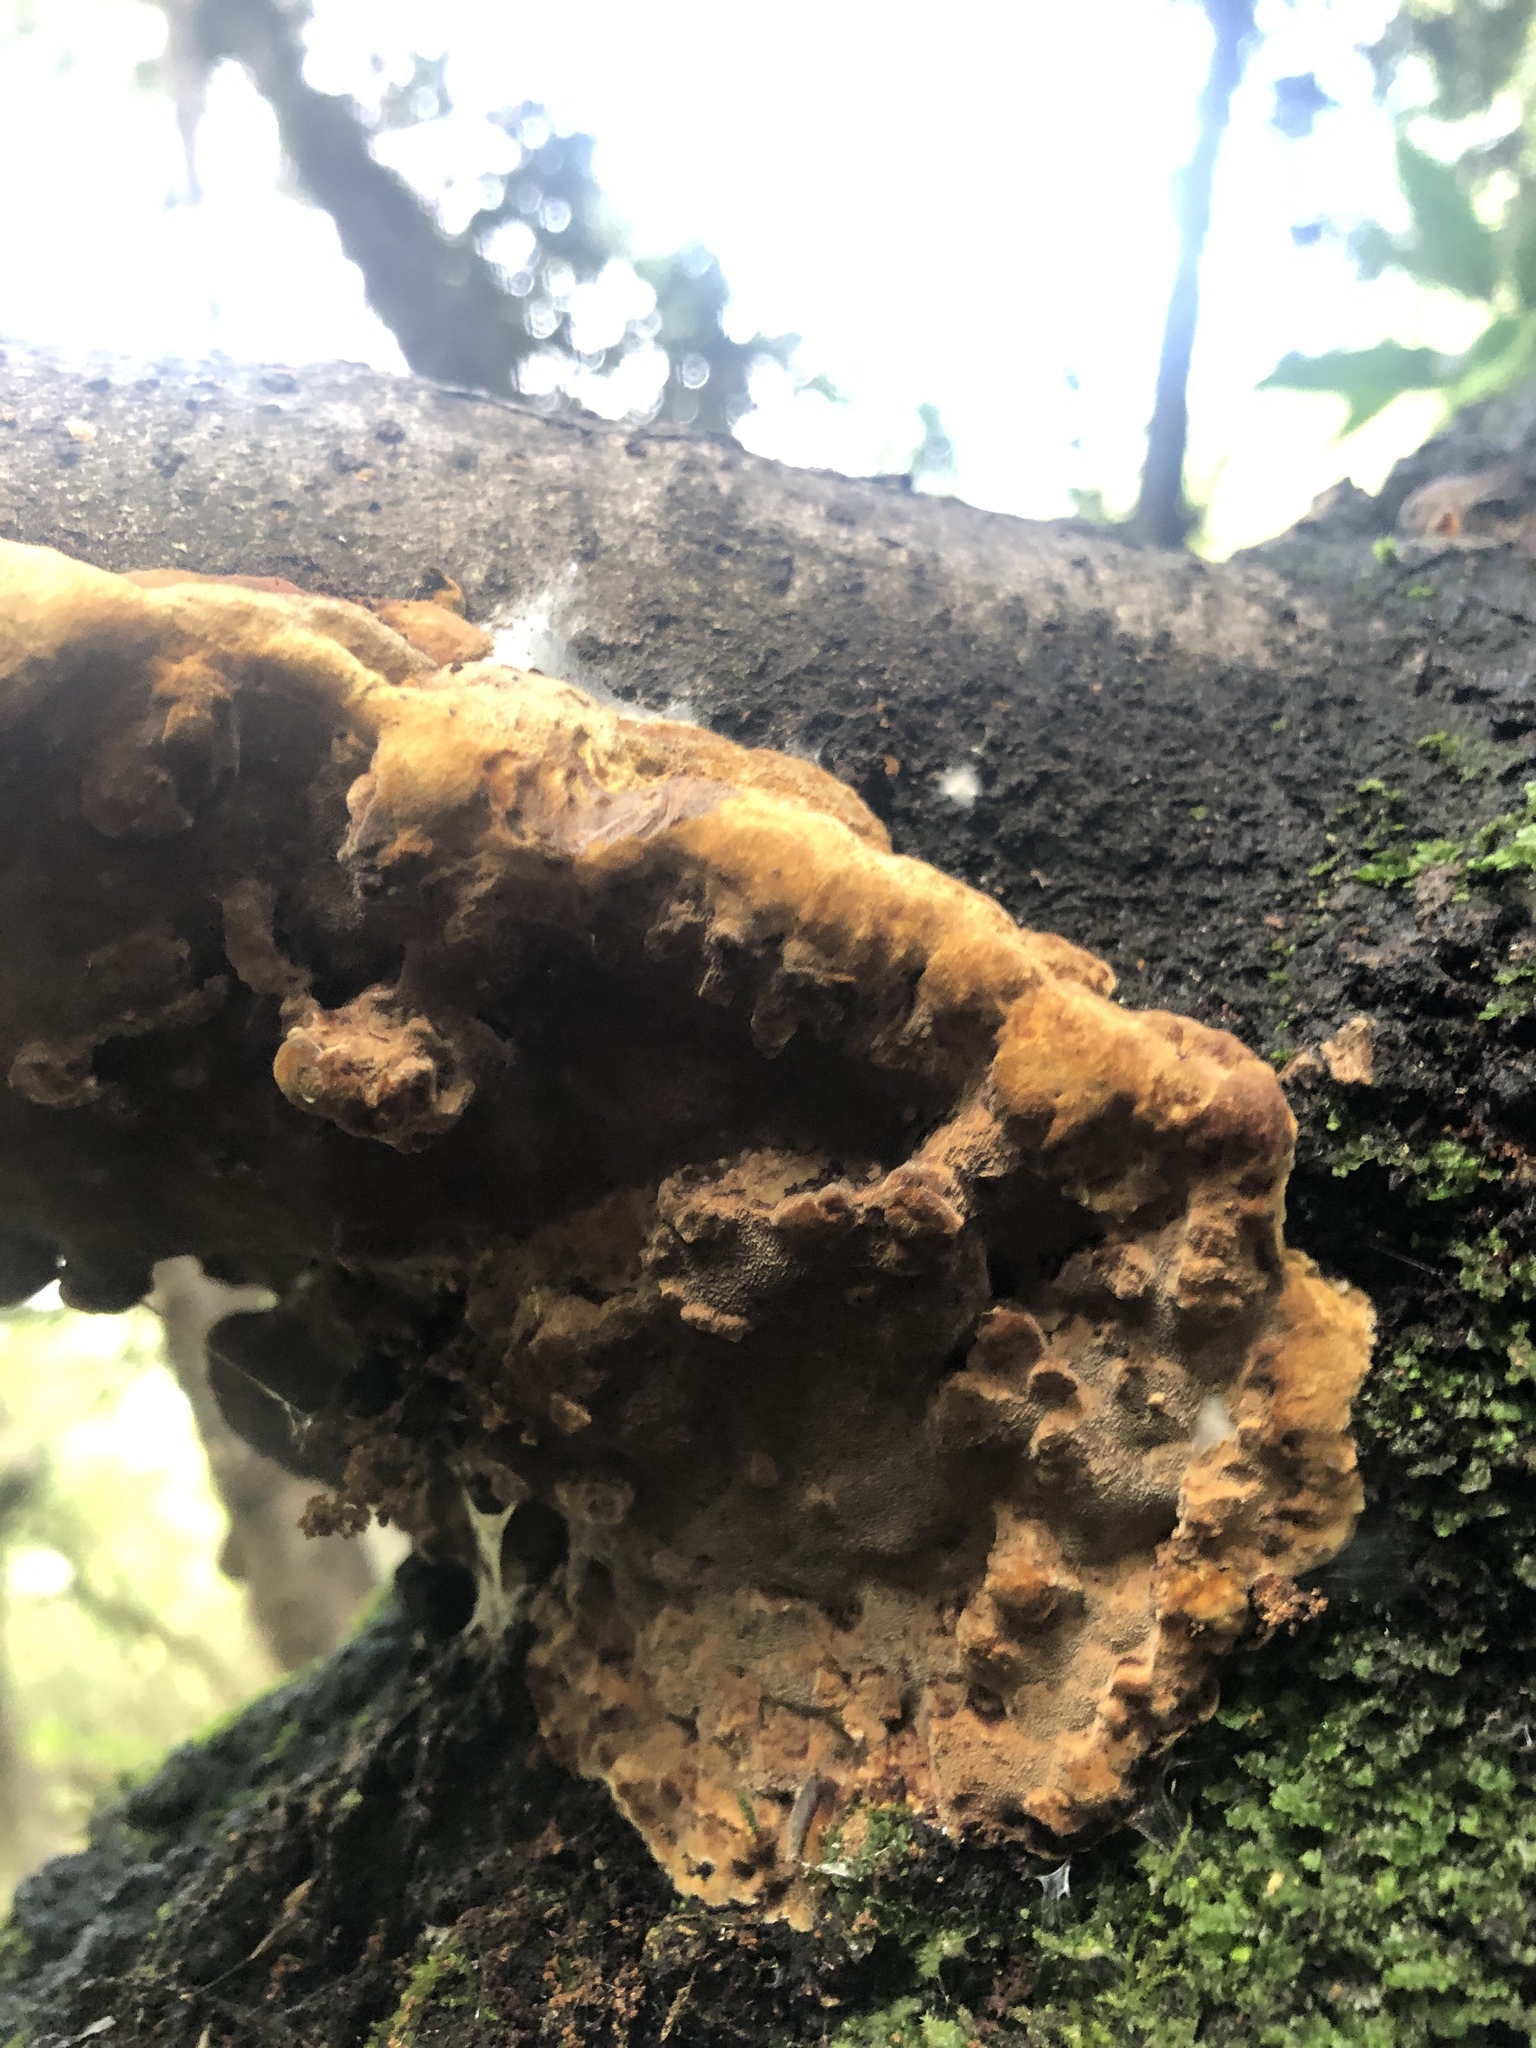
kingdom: Fungi
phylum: Basidiomycota
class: Agaricomycetes
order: Hymenochaetales
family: Hymenochaetaceae
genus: Phellinus
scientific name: Phellinus gilvus
